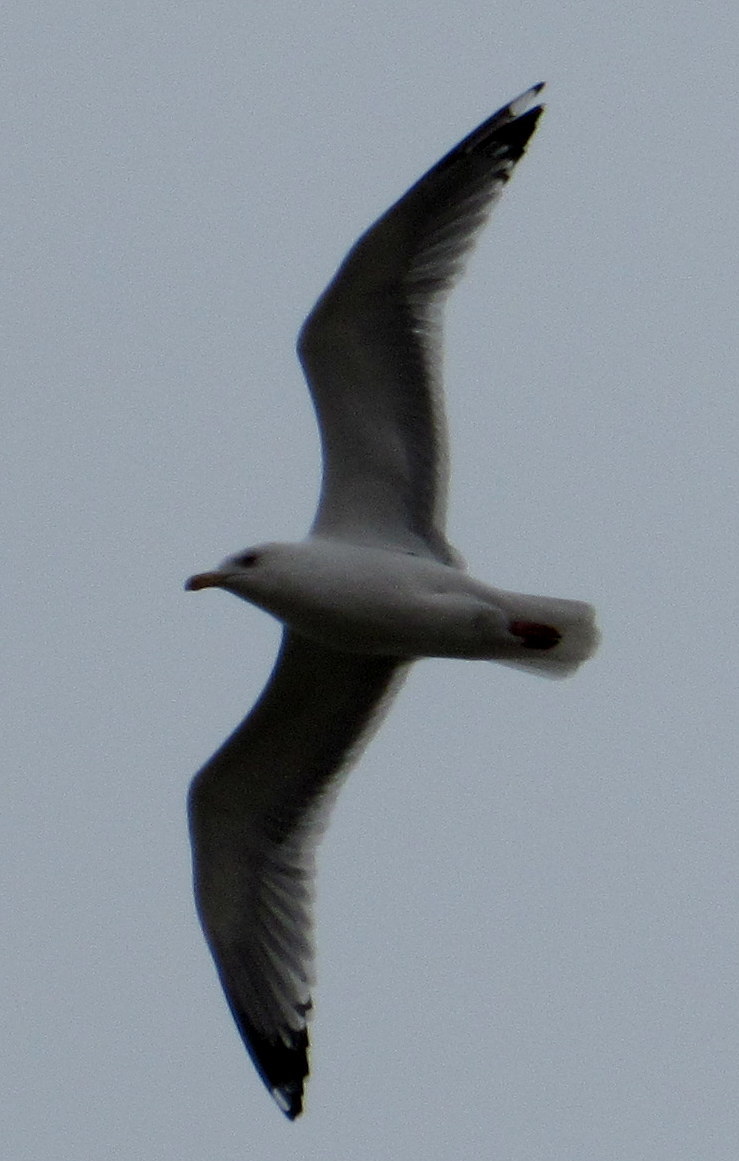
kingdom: Animalia
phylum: Chordata
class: Aves
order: Charadriiformes
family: Laridae
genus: Larus
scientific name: Larus argentatus
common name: Herring gull
